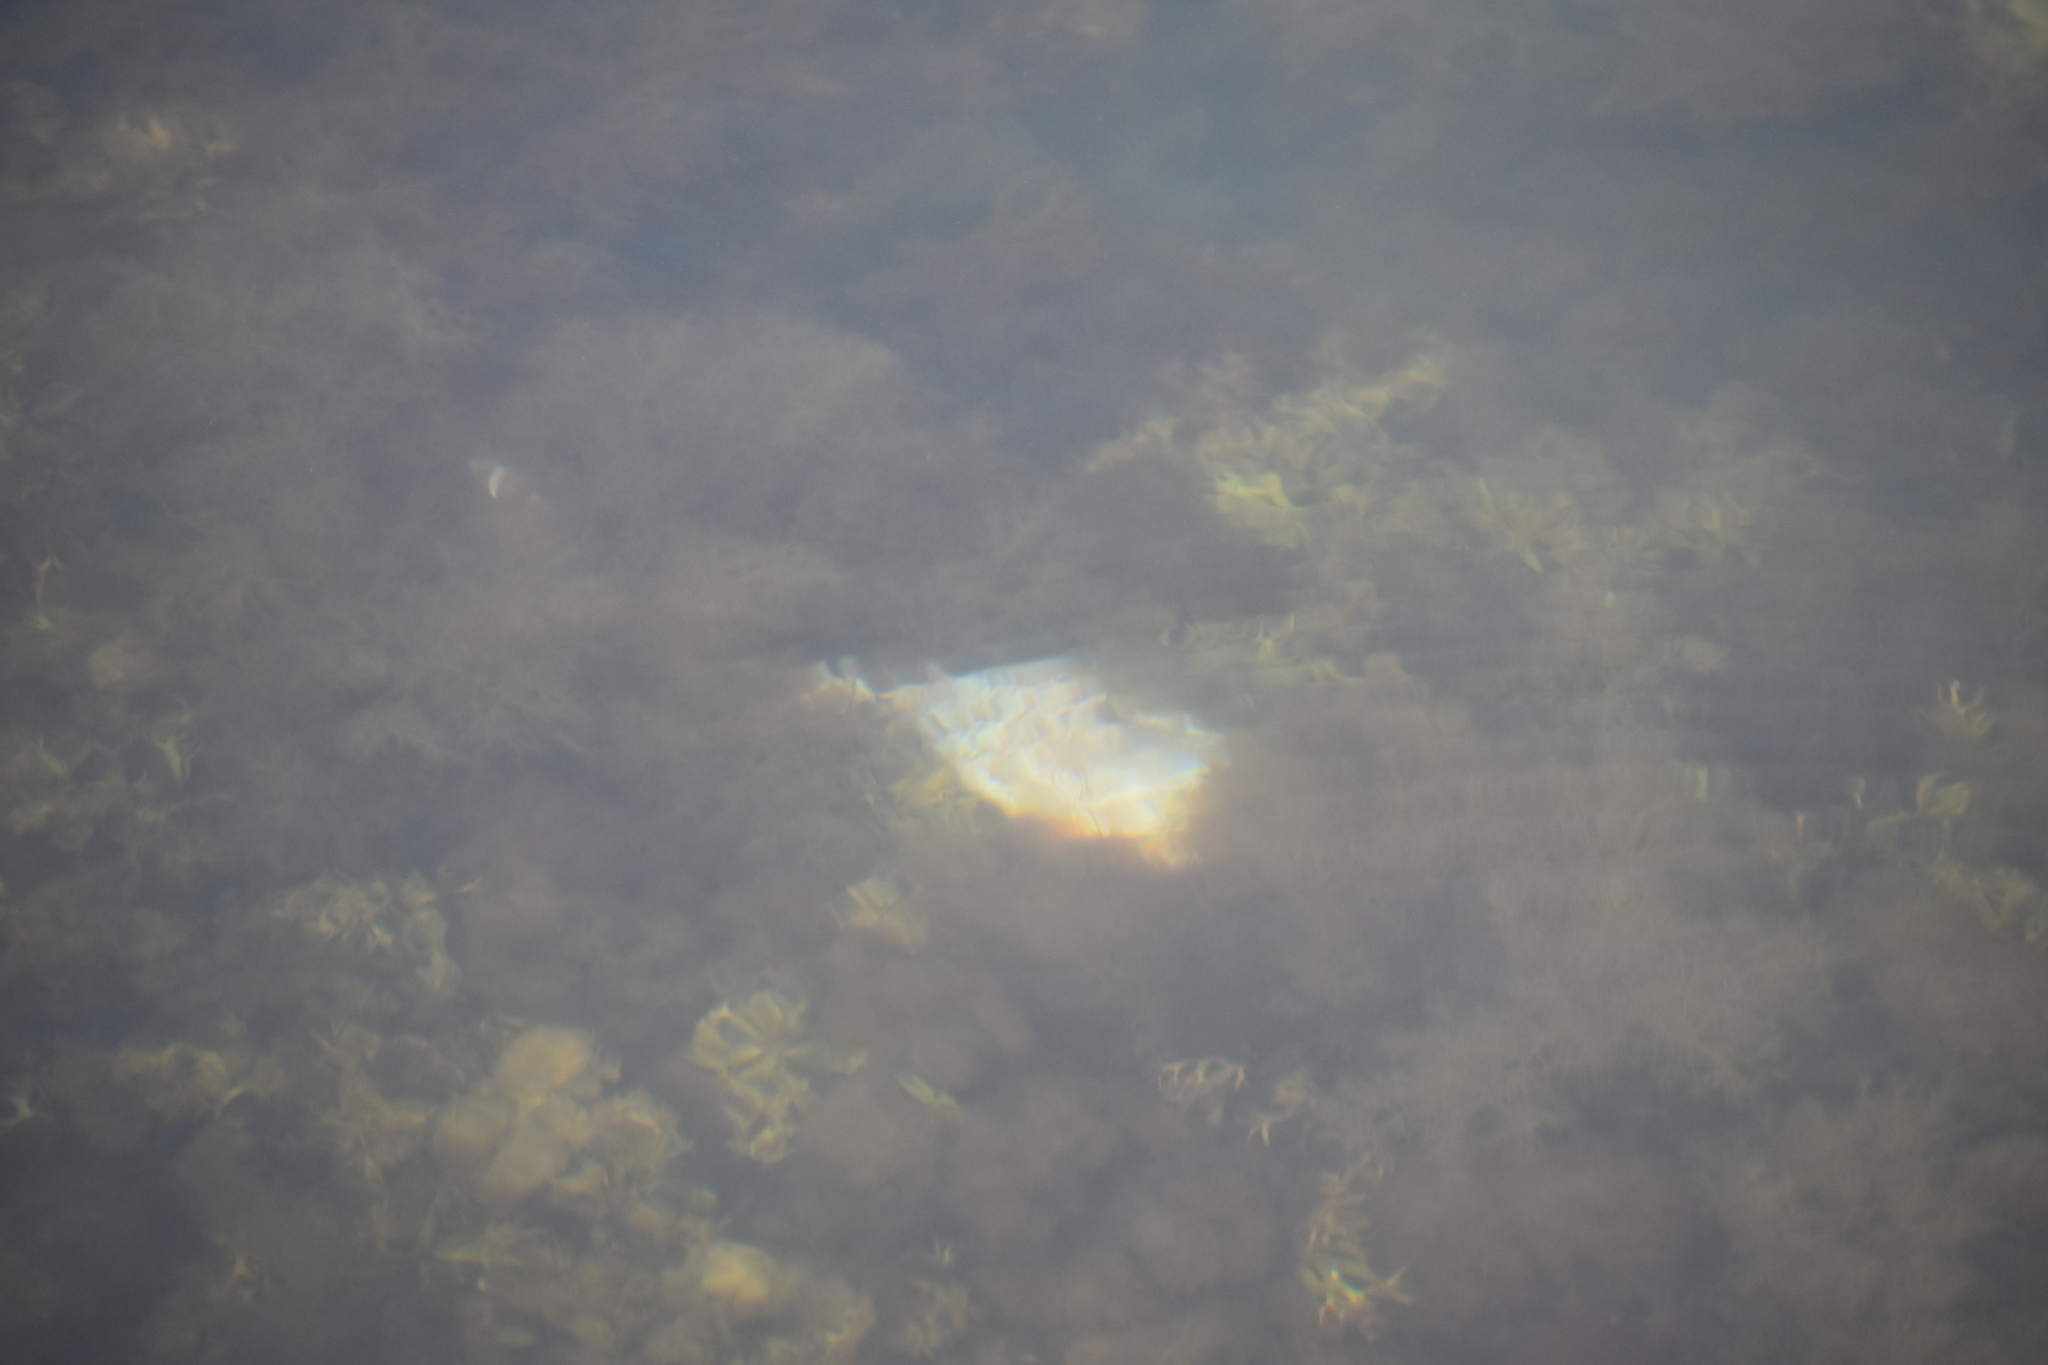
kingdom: Animalia
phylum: Chordata
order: Perciformes
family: Moronidae
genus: Morone
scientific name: Morone saxatilis
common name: Striped bass
